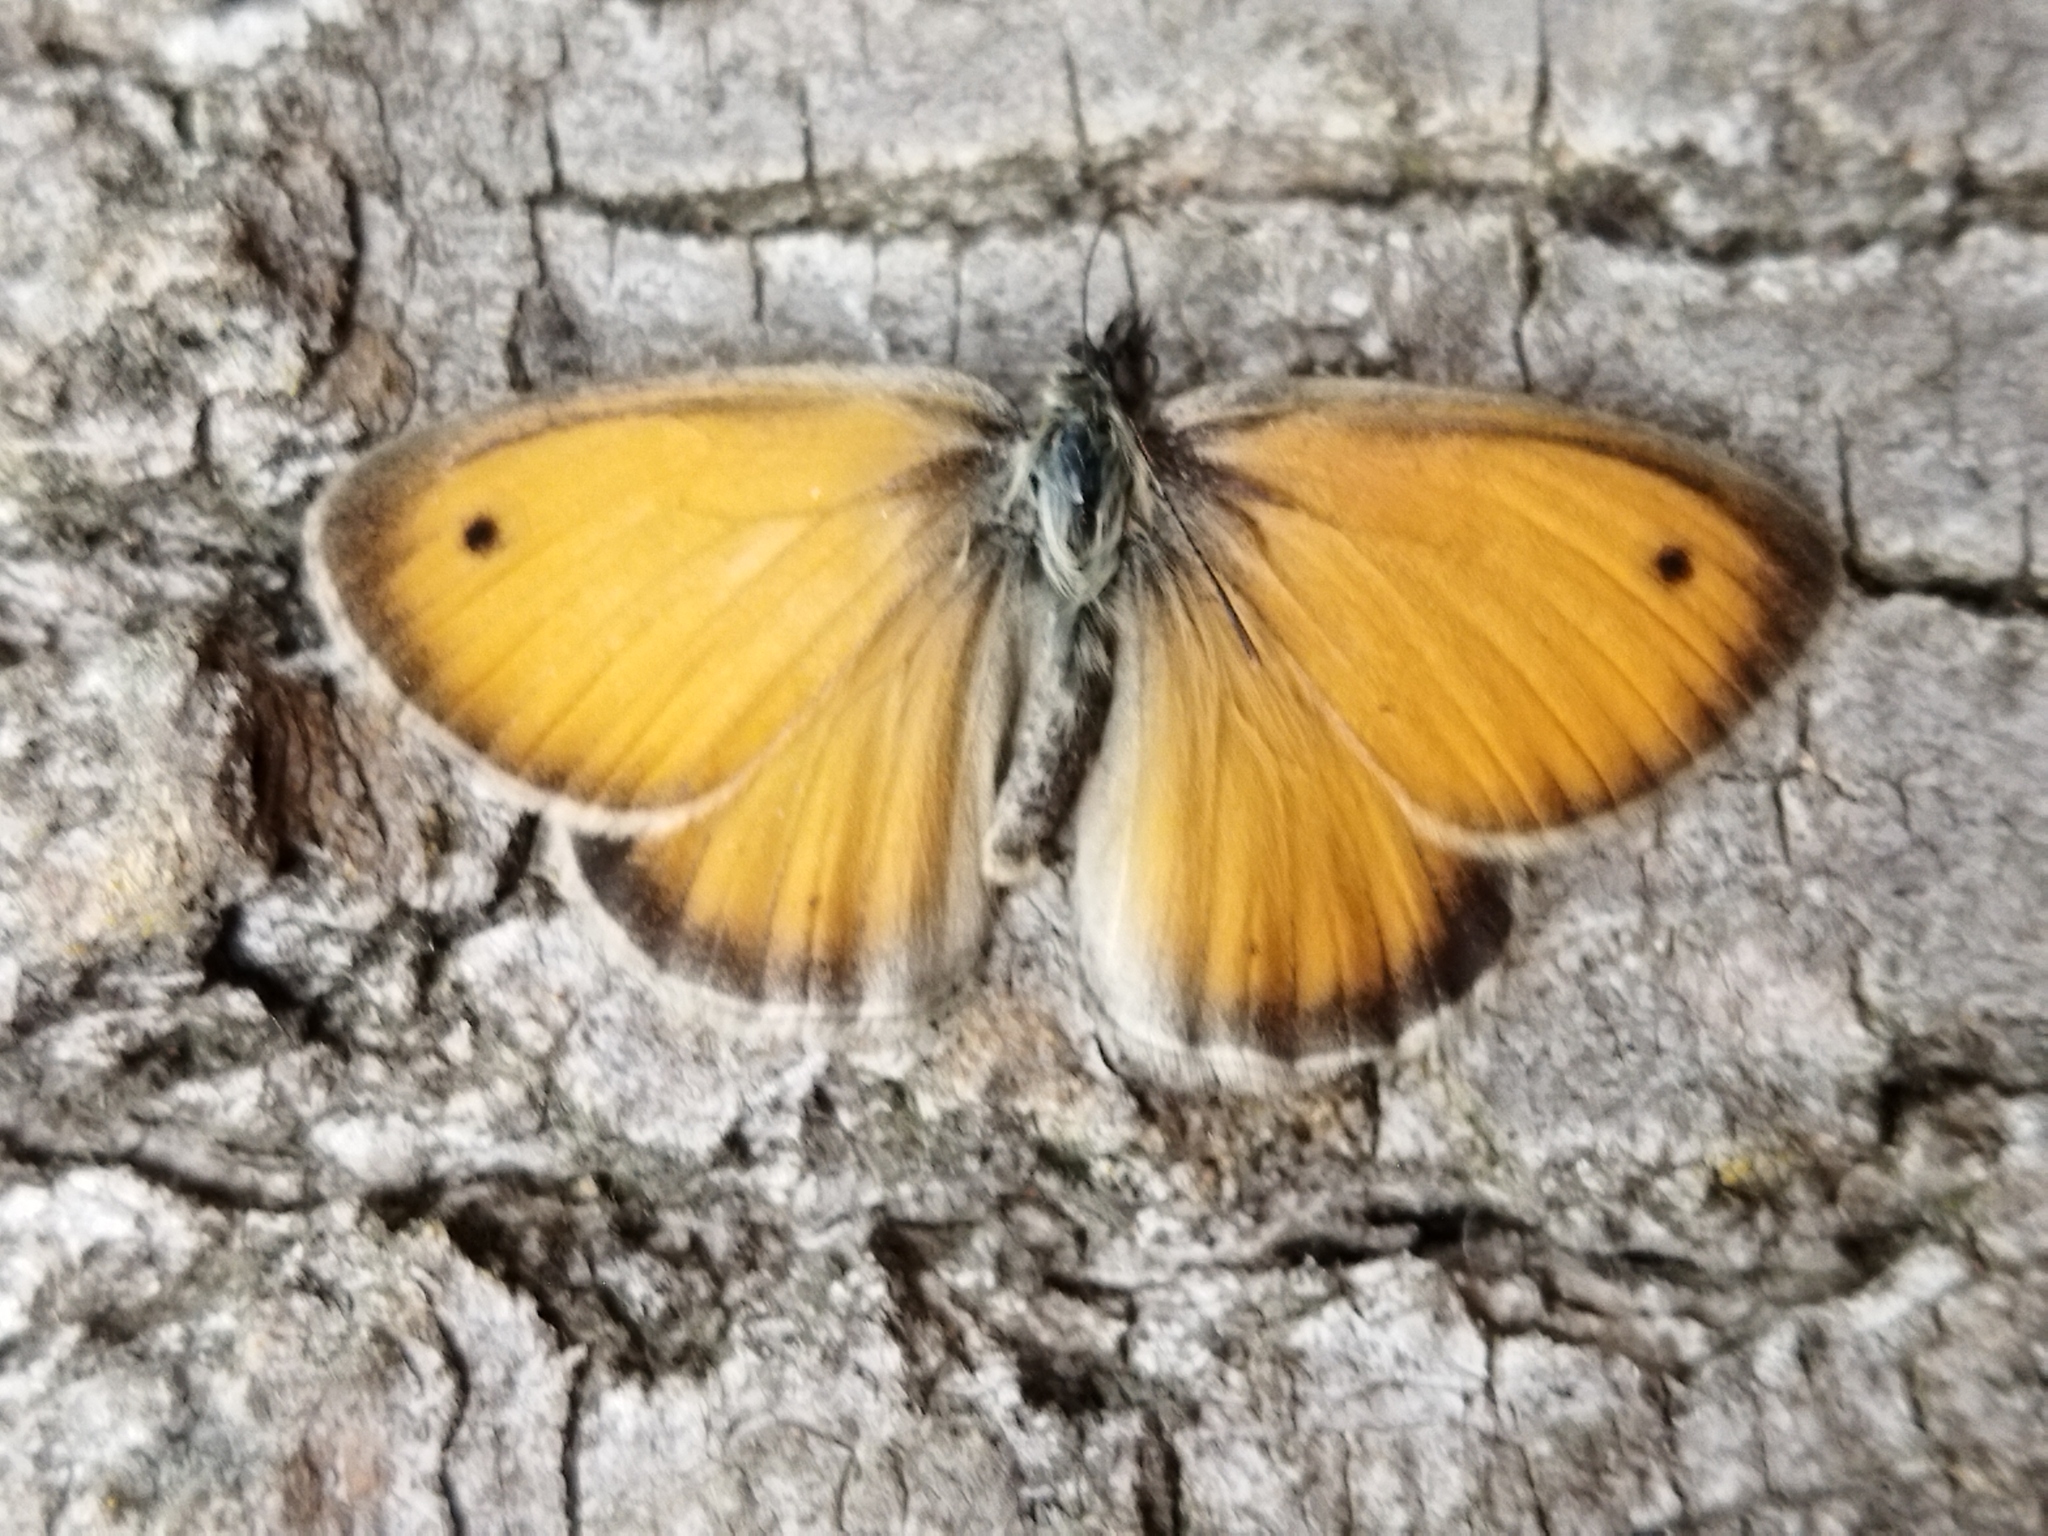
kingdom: Animalia
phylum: Arthropoda
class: Insecta
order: Lepidoptera
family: Nymphalidae
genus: Coenonympha
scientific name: Coenonympha pamphilus
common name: Small heath
